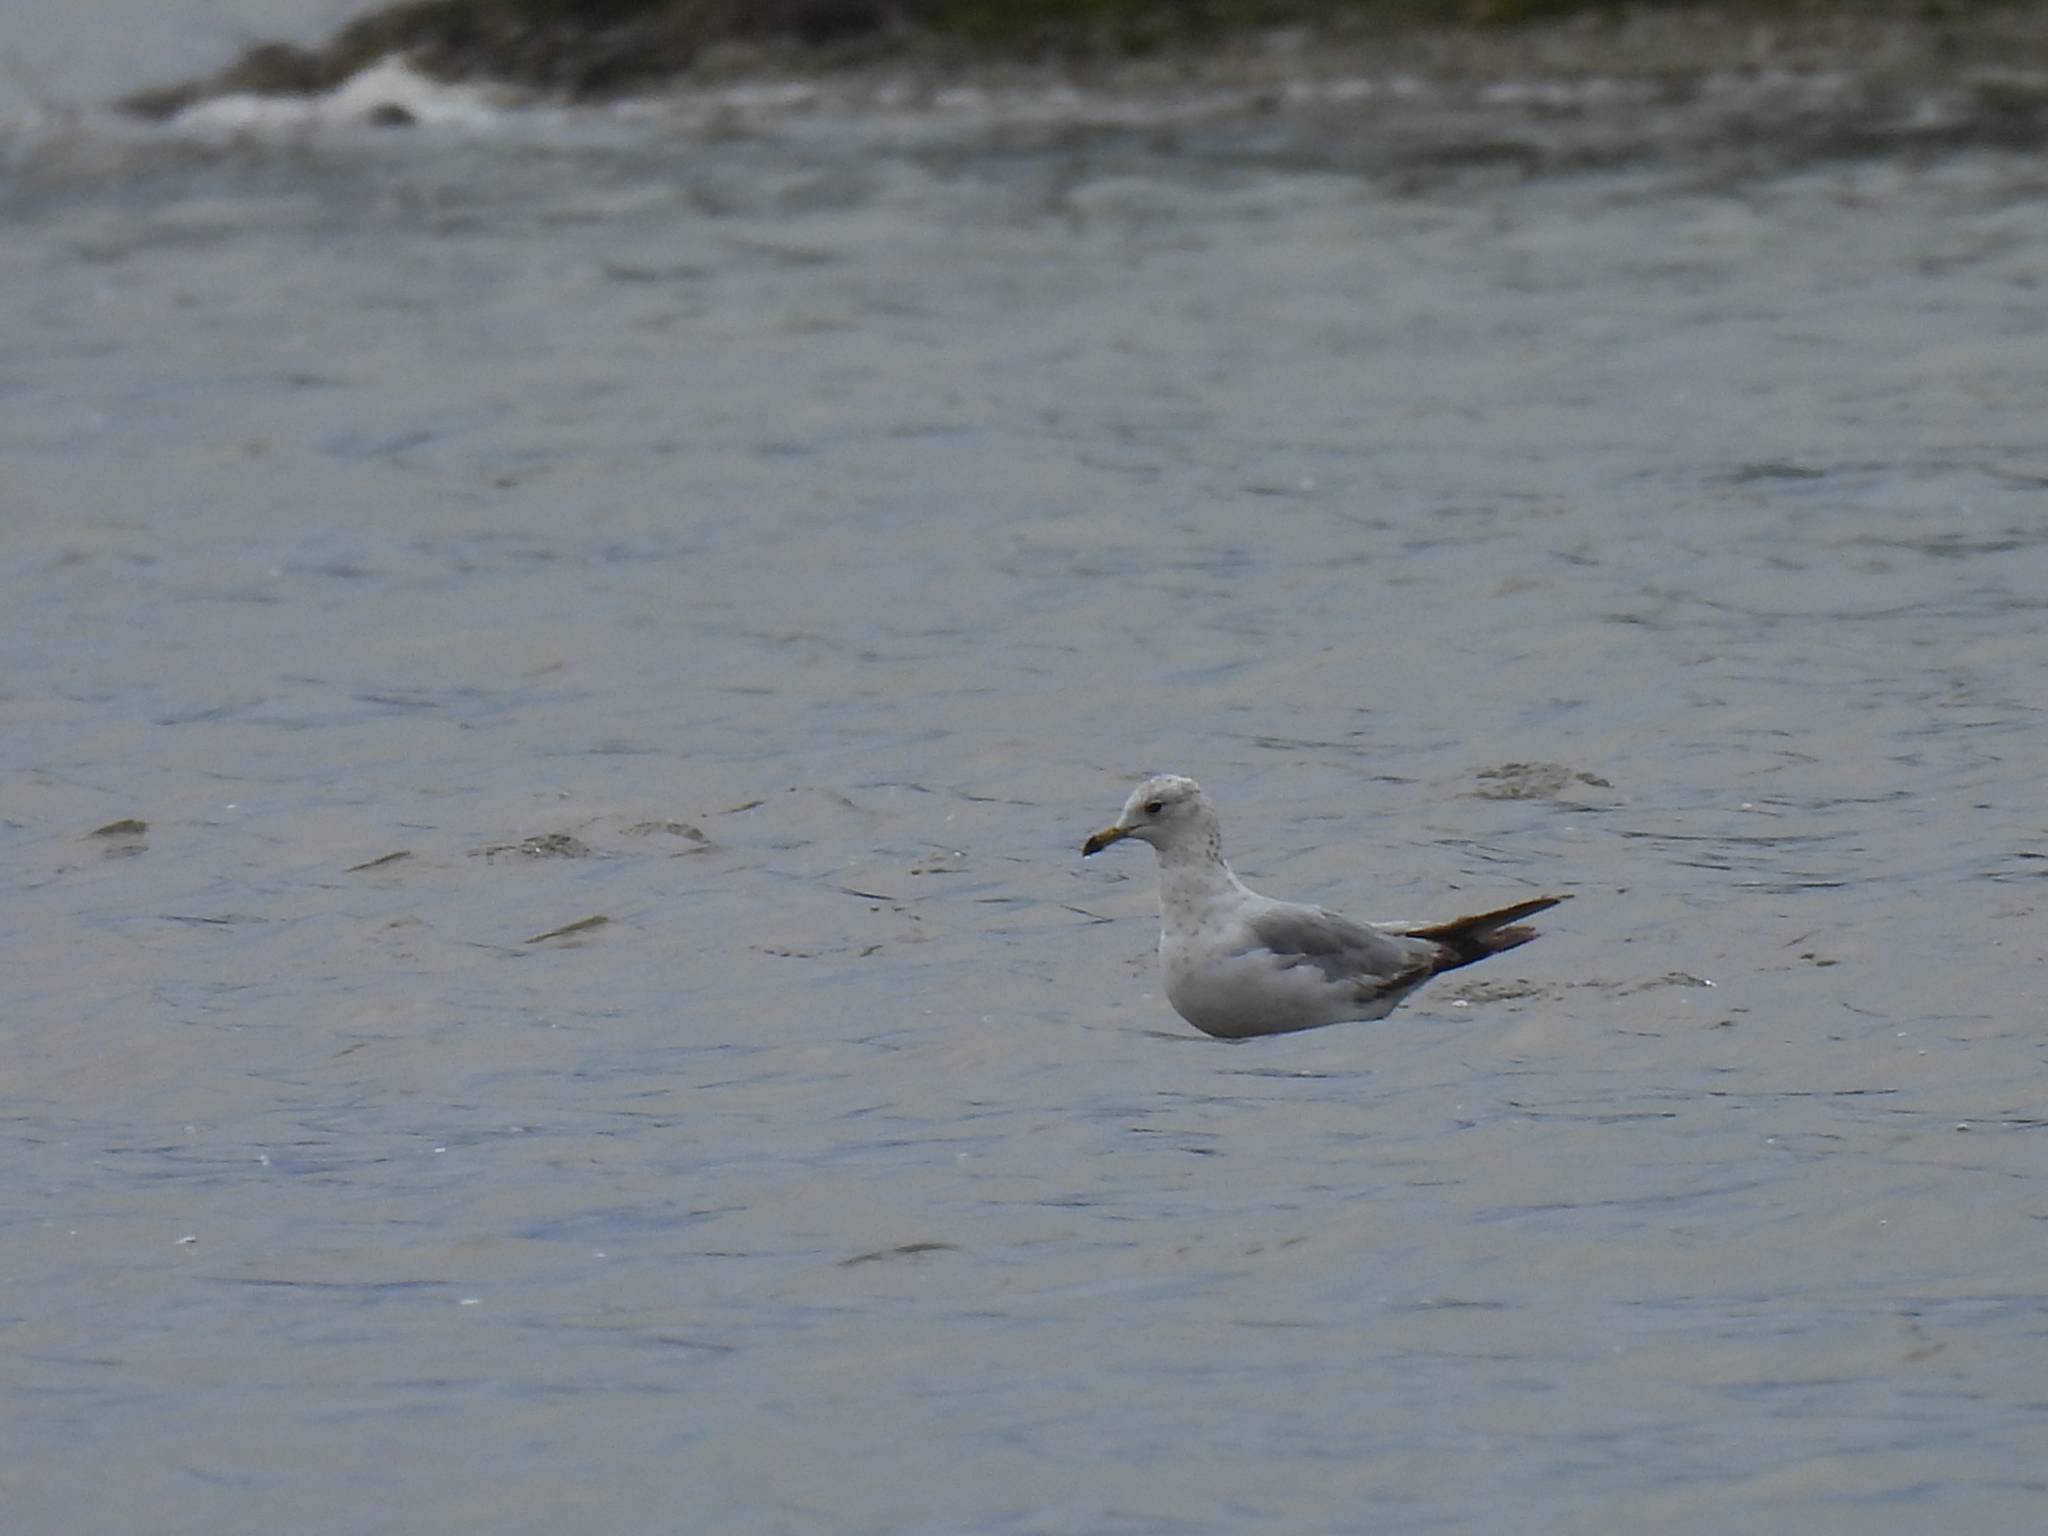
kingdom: Animalia
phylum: Chordata
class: Aves
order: Charadriiformes
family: Laridae
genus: Larus
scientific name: Larus delawarensis
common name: Ring-billed gull
